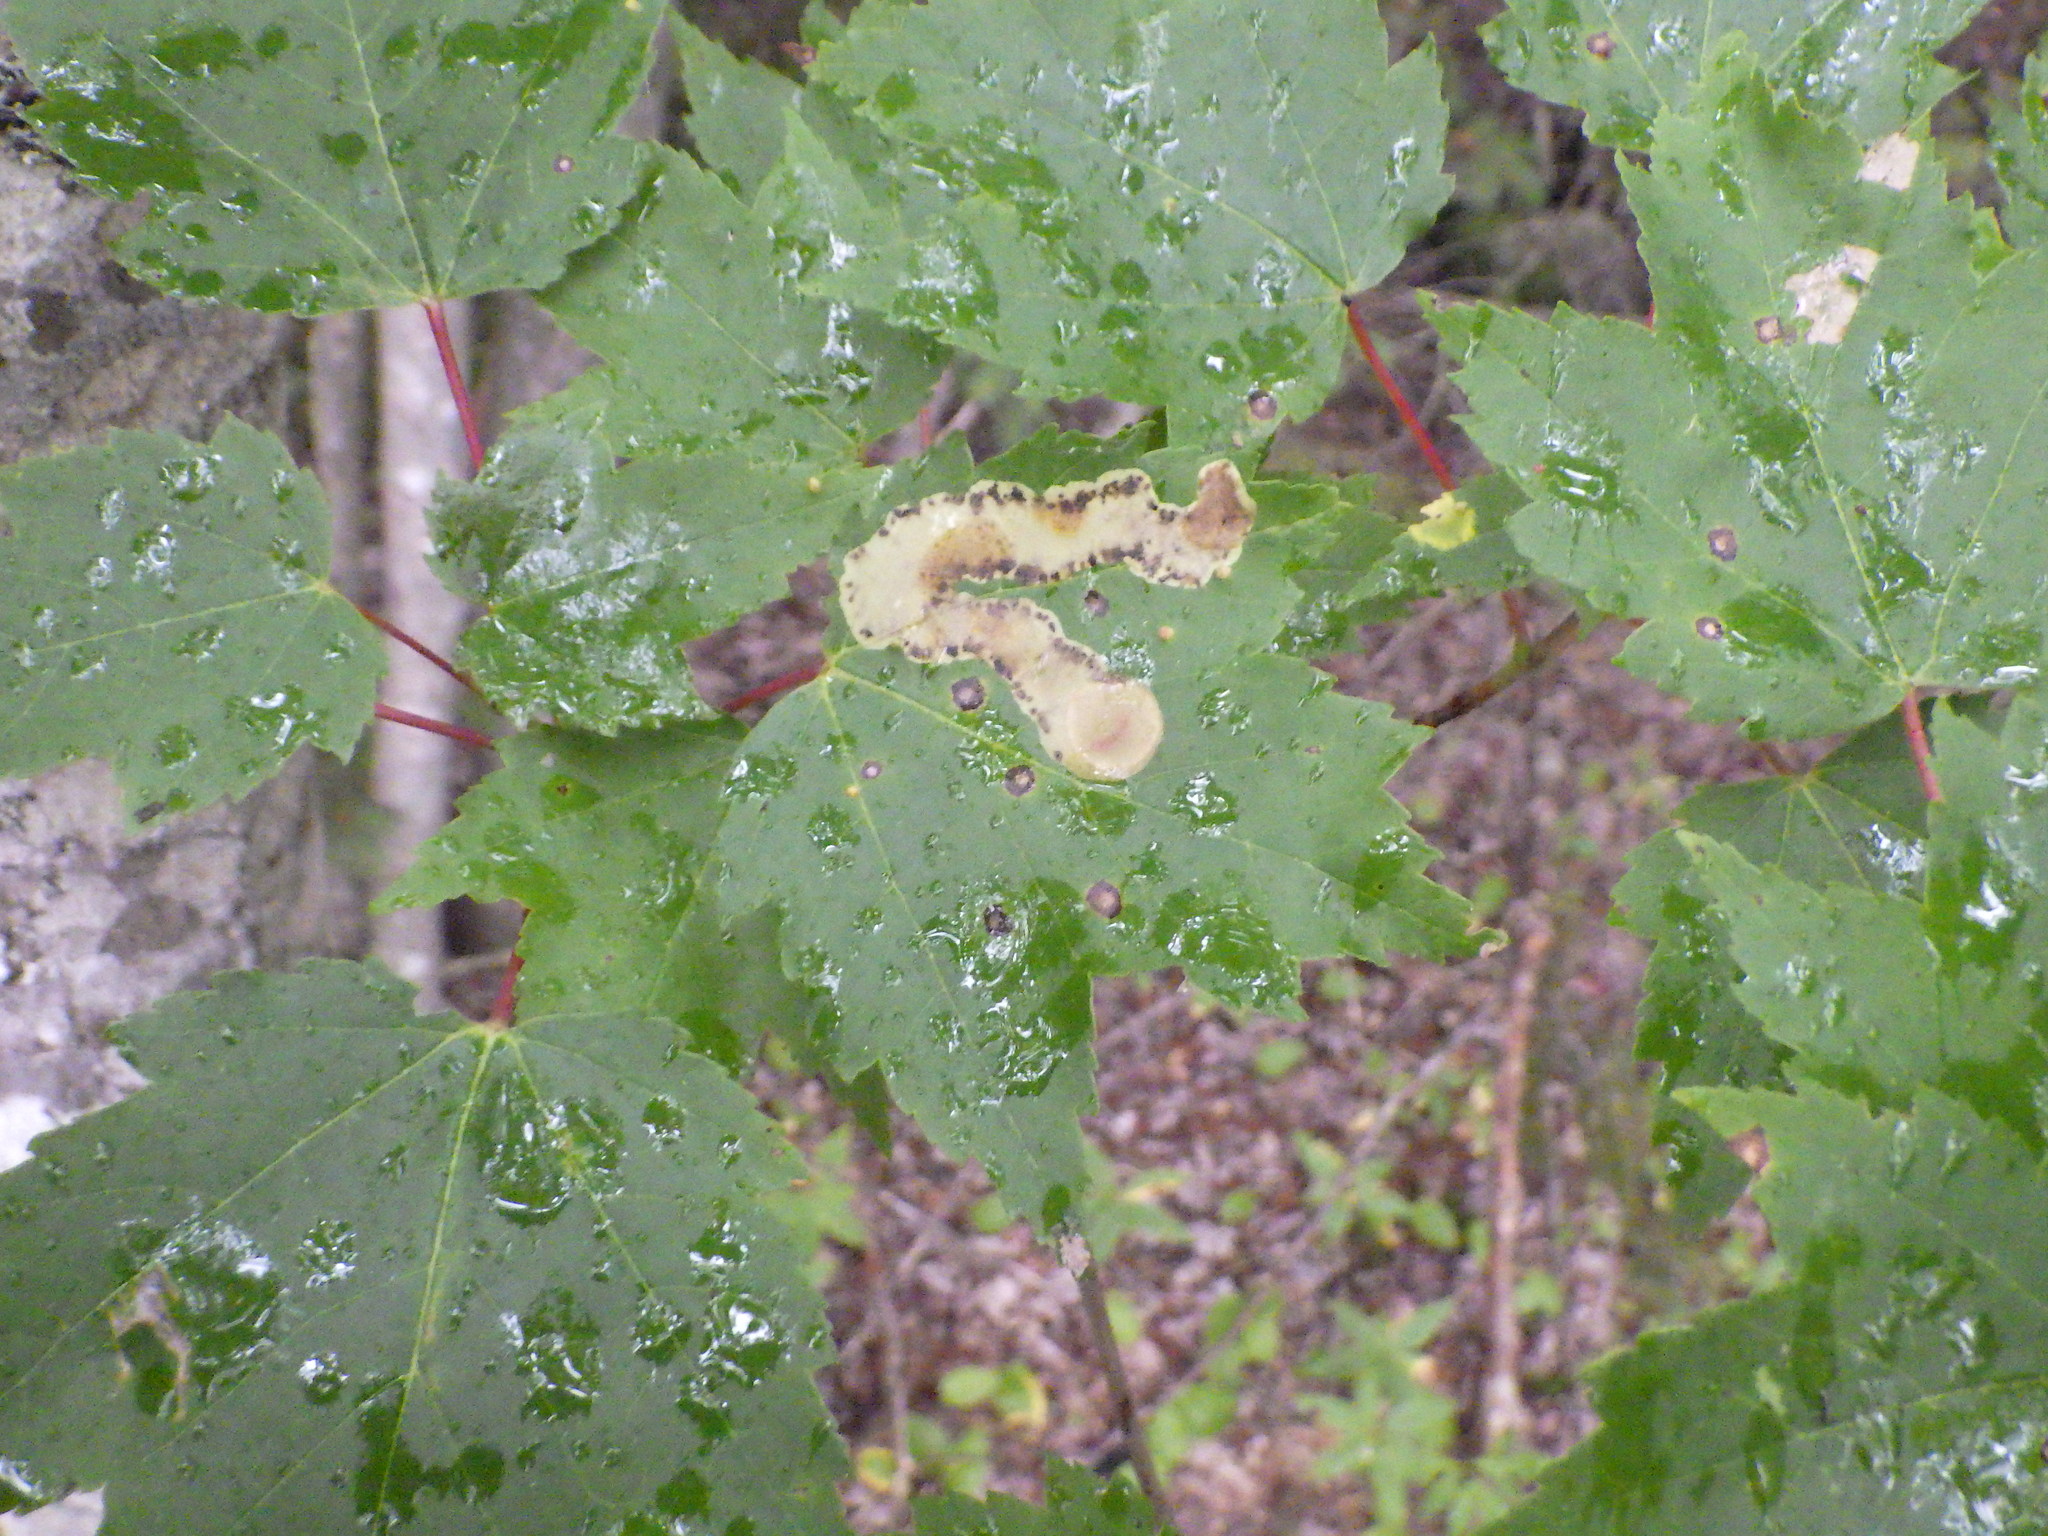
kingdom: Animalia
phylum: Arthropoda
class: Insecta
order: Lepidoptera
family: Gracillariidae
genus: Cameraria
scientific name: Cameraria aceriella
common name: Maple leafblotch miner
